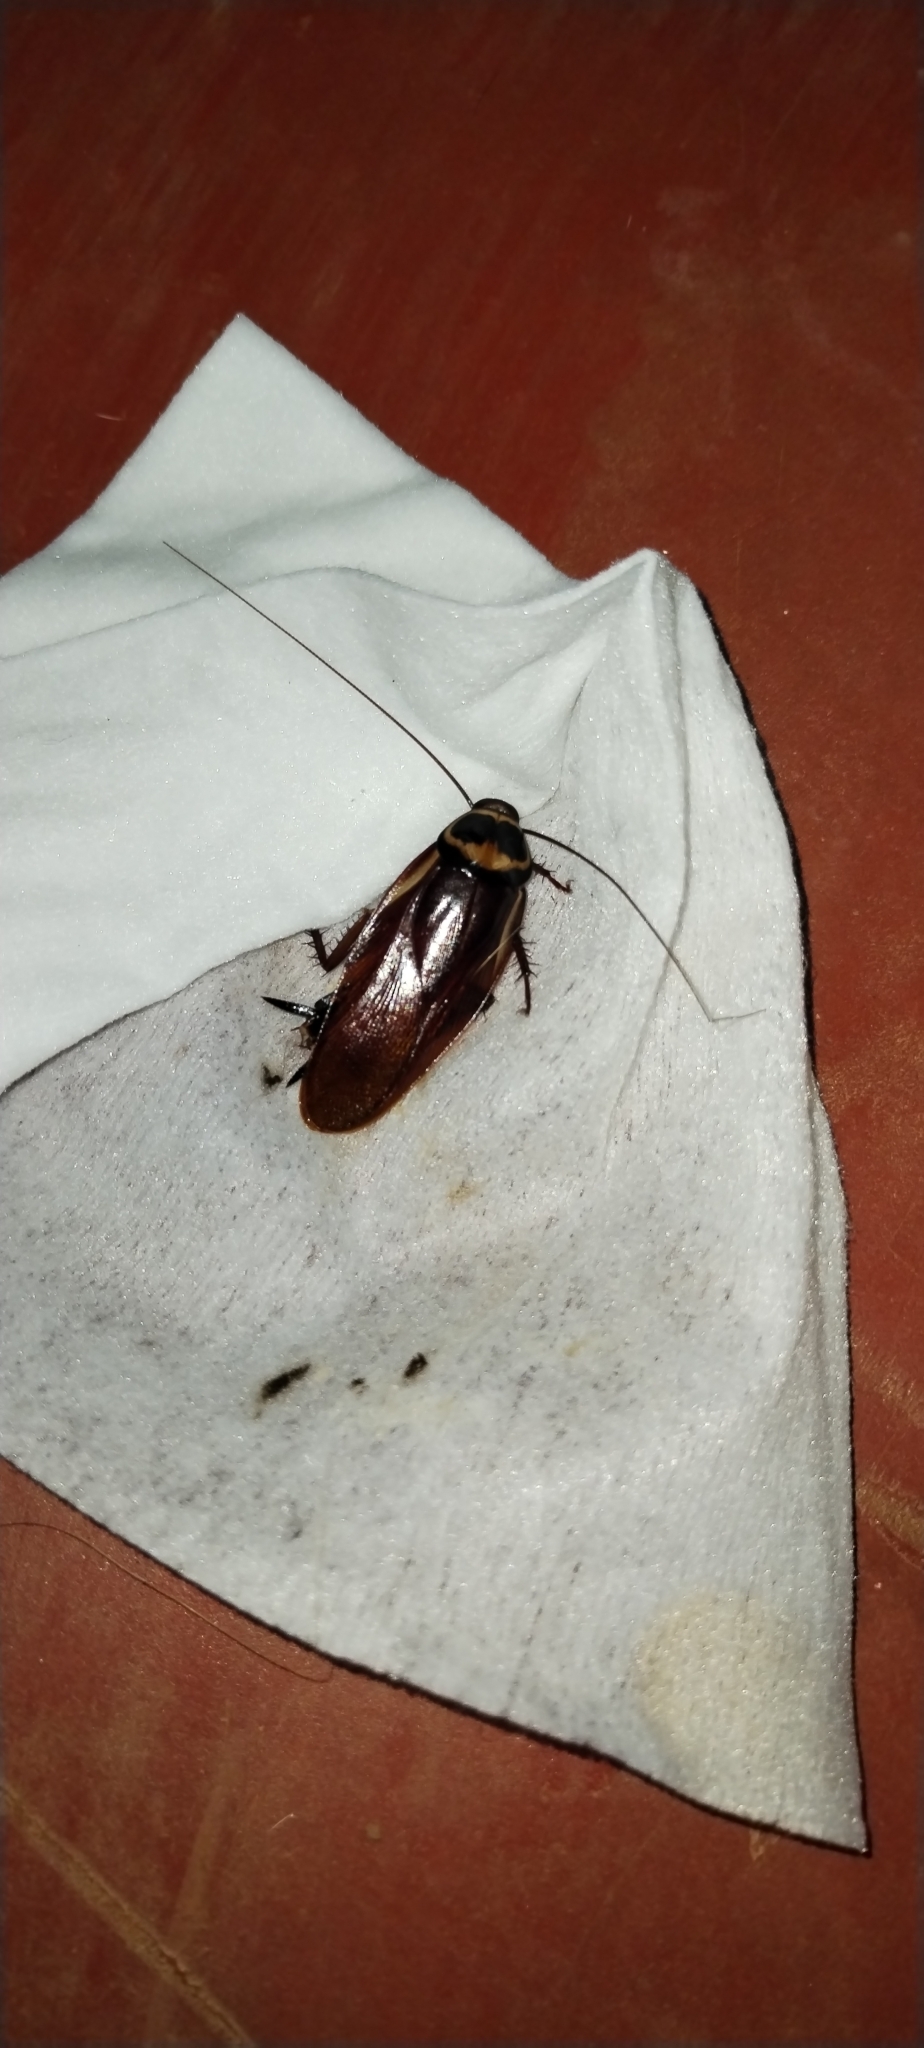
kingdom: Animalia
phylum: Arthropoda
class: Insecta
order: Blattodea
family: Blattidae
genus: Periplaneta
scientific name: Periplaneta australasiae
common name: Australian cockroach
